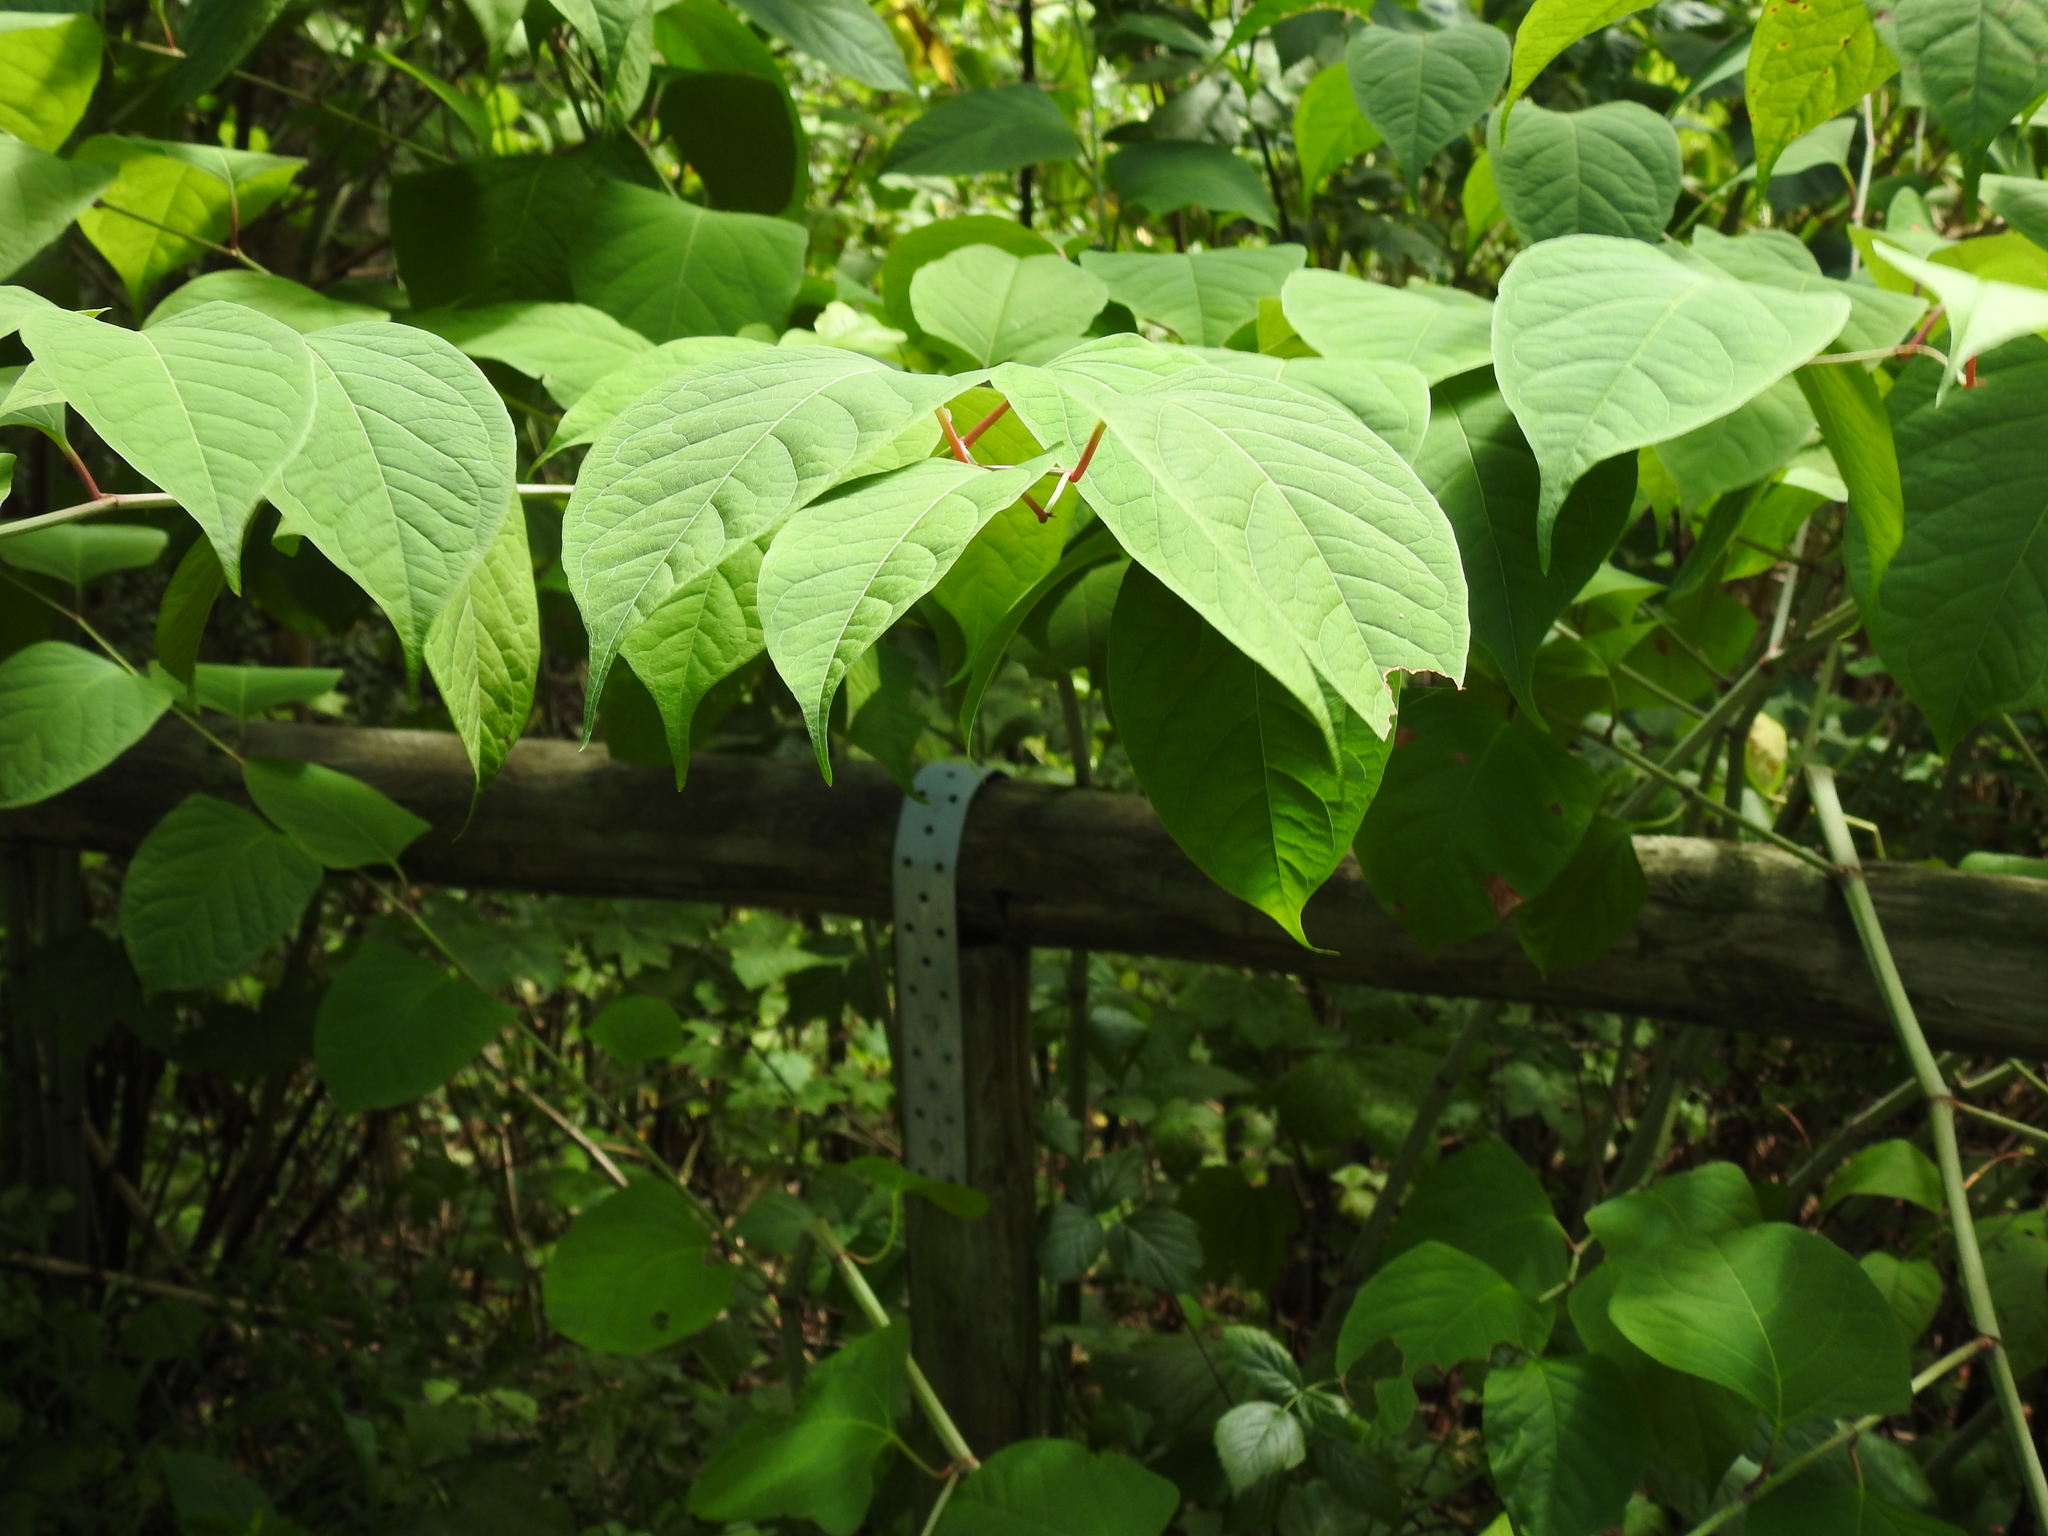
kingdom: Plantae
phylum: Tracheophyta
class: Magnoliopsida
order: Caryophyllales
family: Polygonaceae
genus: Reynoutria
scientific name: Reynoutria japonica
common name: Japanese knotweed
